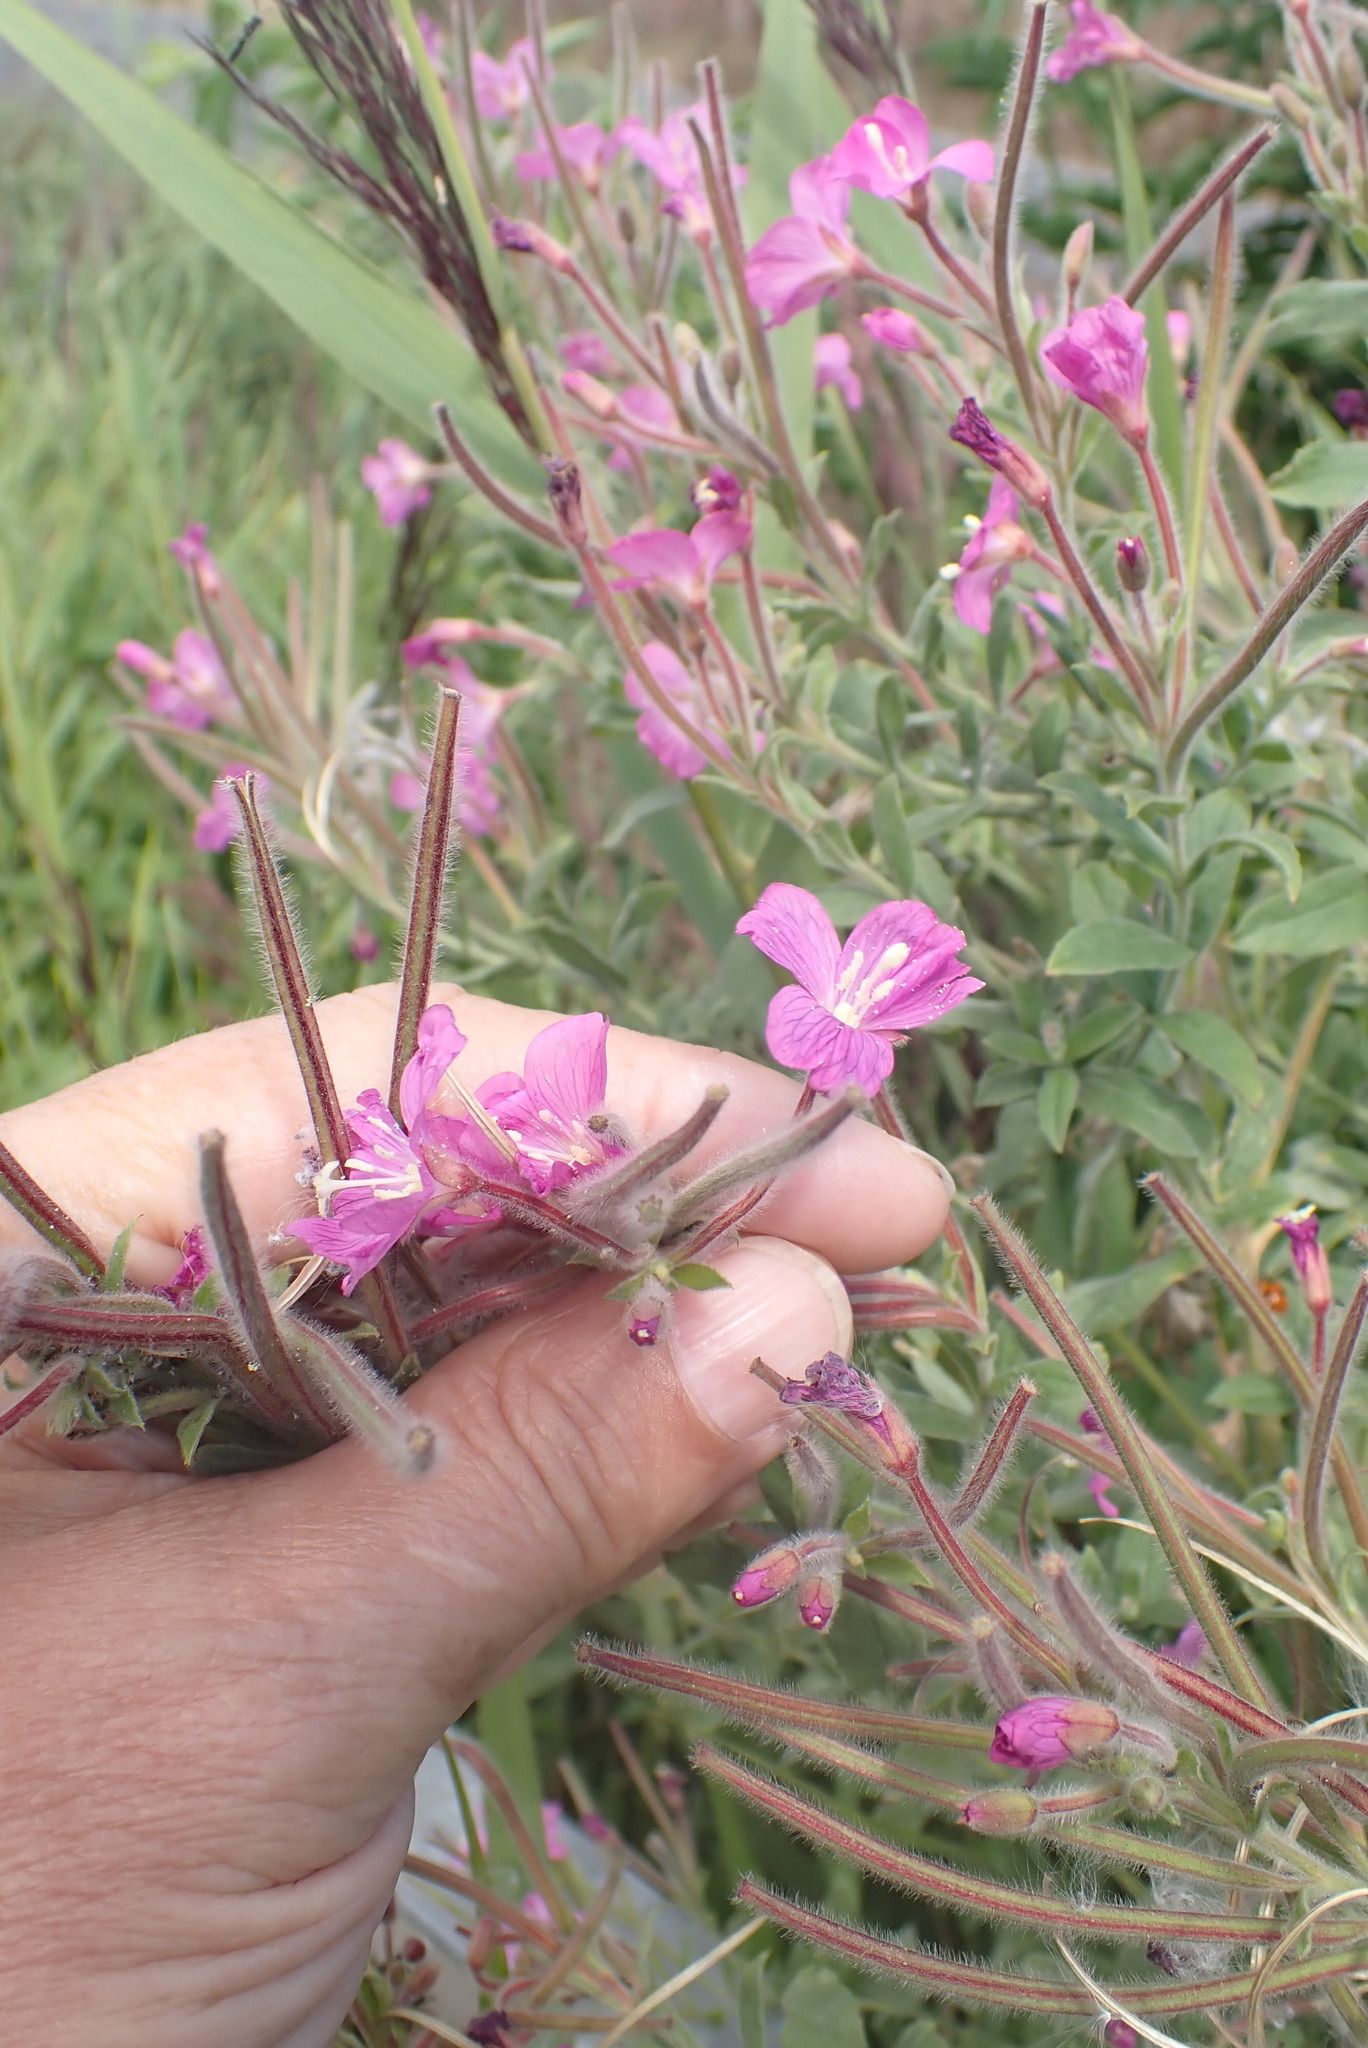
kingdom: Plantae
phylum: Tracheophyta
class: Magnoliopsida
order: Myrtales
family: Onagraceae
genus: Epilobium
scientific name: Epilobium hirsutum
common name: Great willowherb
